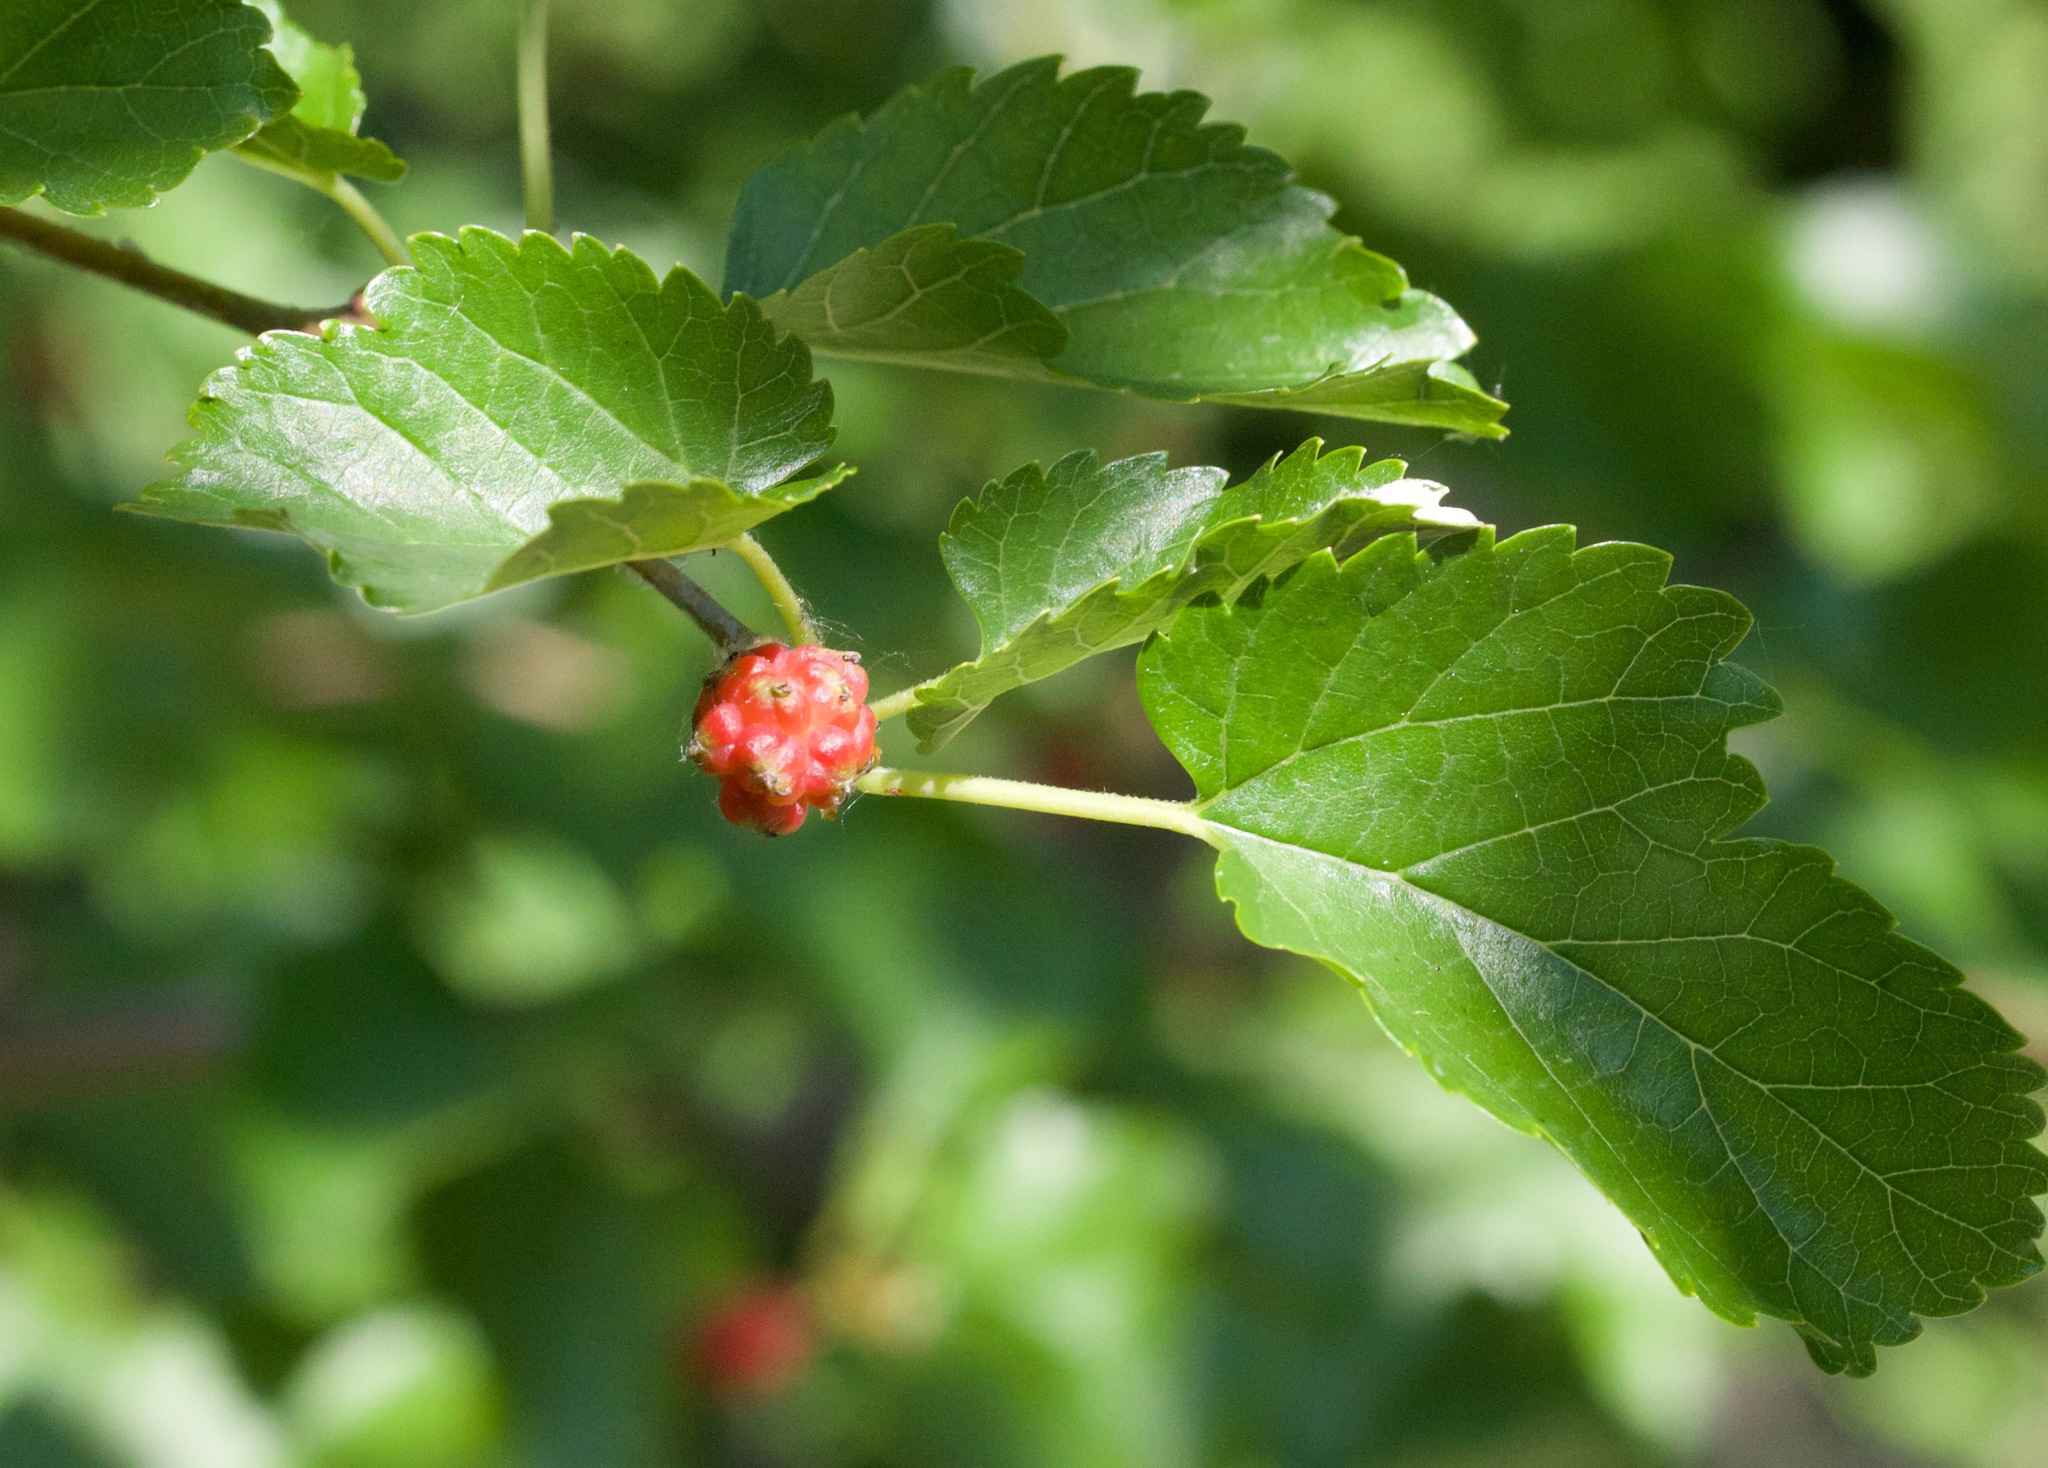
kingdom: Plantae
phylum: Tracheophyta
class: Magnoliopsida
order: Rosales
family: Moraceae
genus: Morus
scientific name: Morus alba
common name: White mulberry
